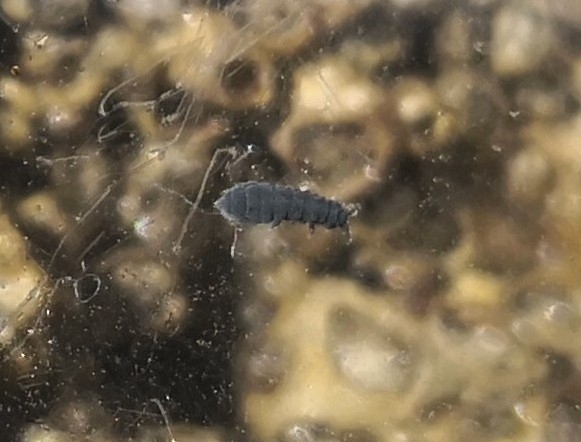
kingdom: Animalia
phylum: Arthropoda
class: Collembola
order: Poduromorpha
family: Neanuridae
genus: Anurida
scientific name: Anurida maritima
